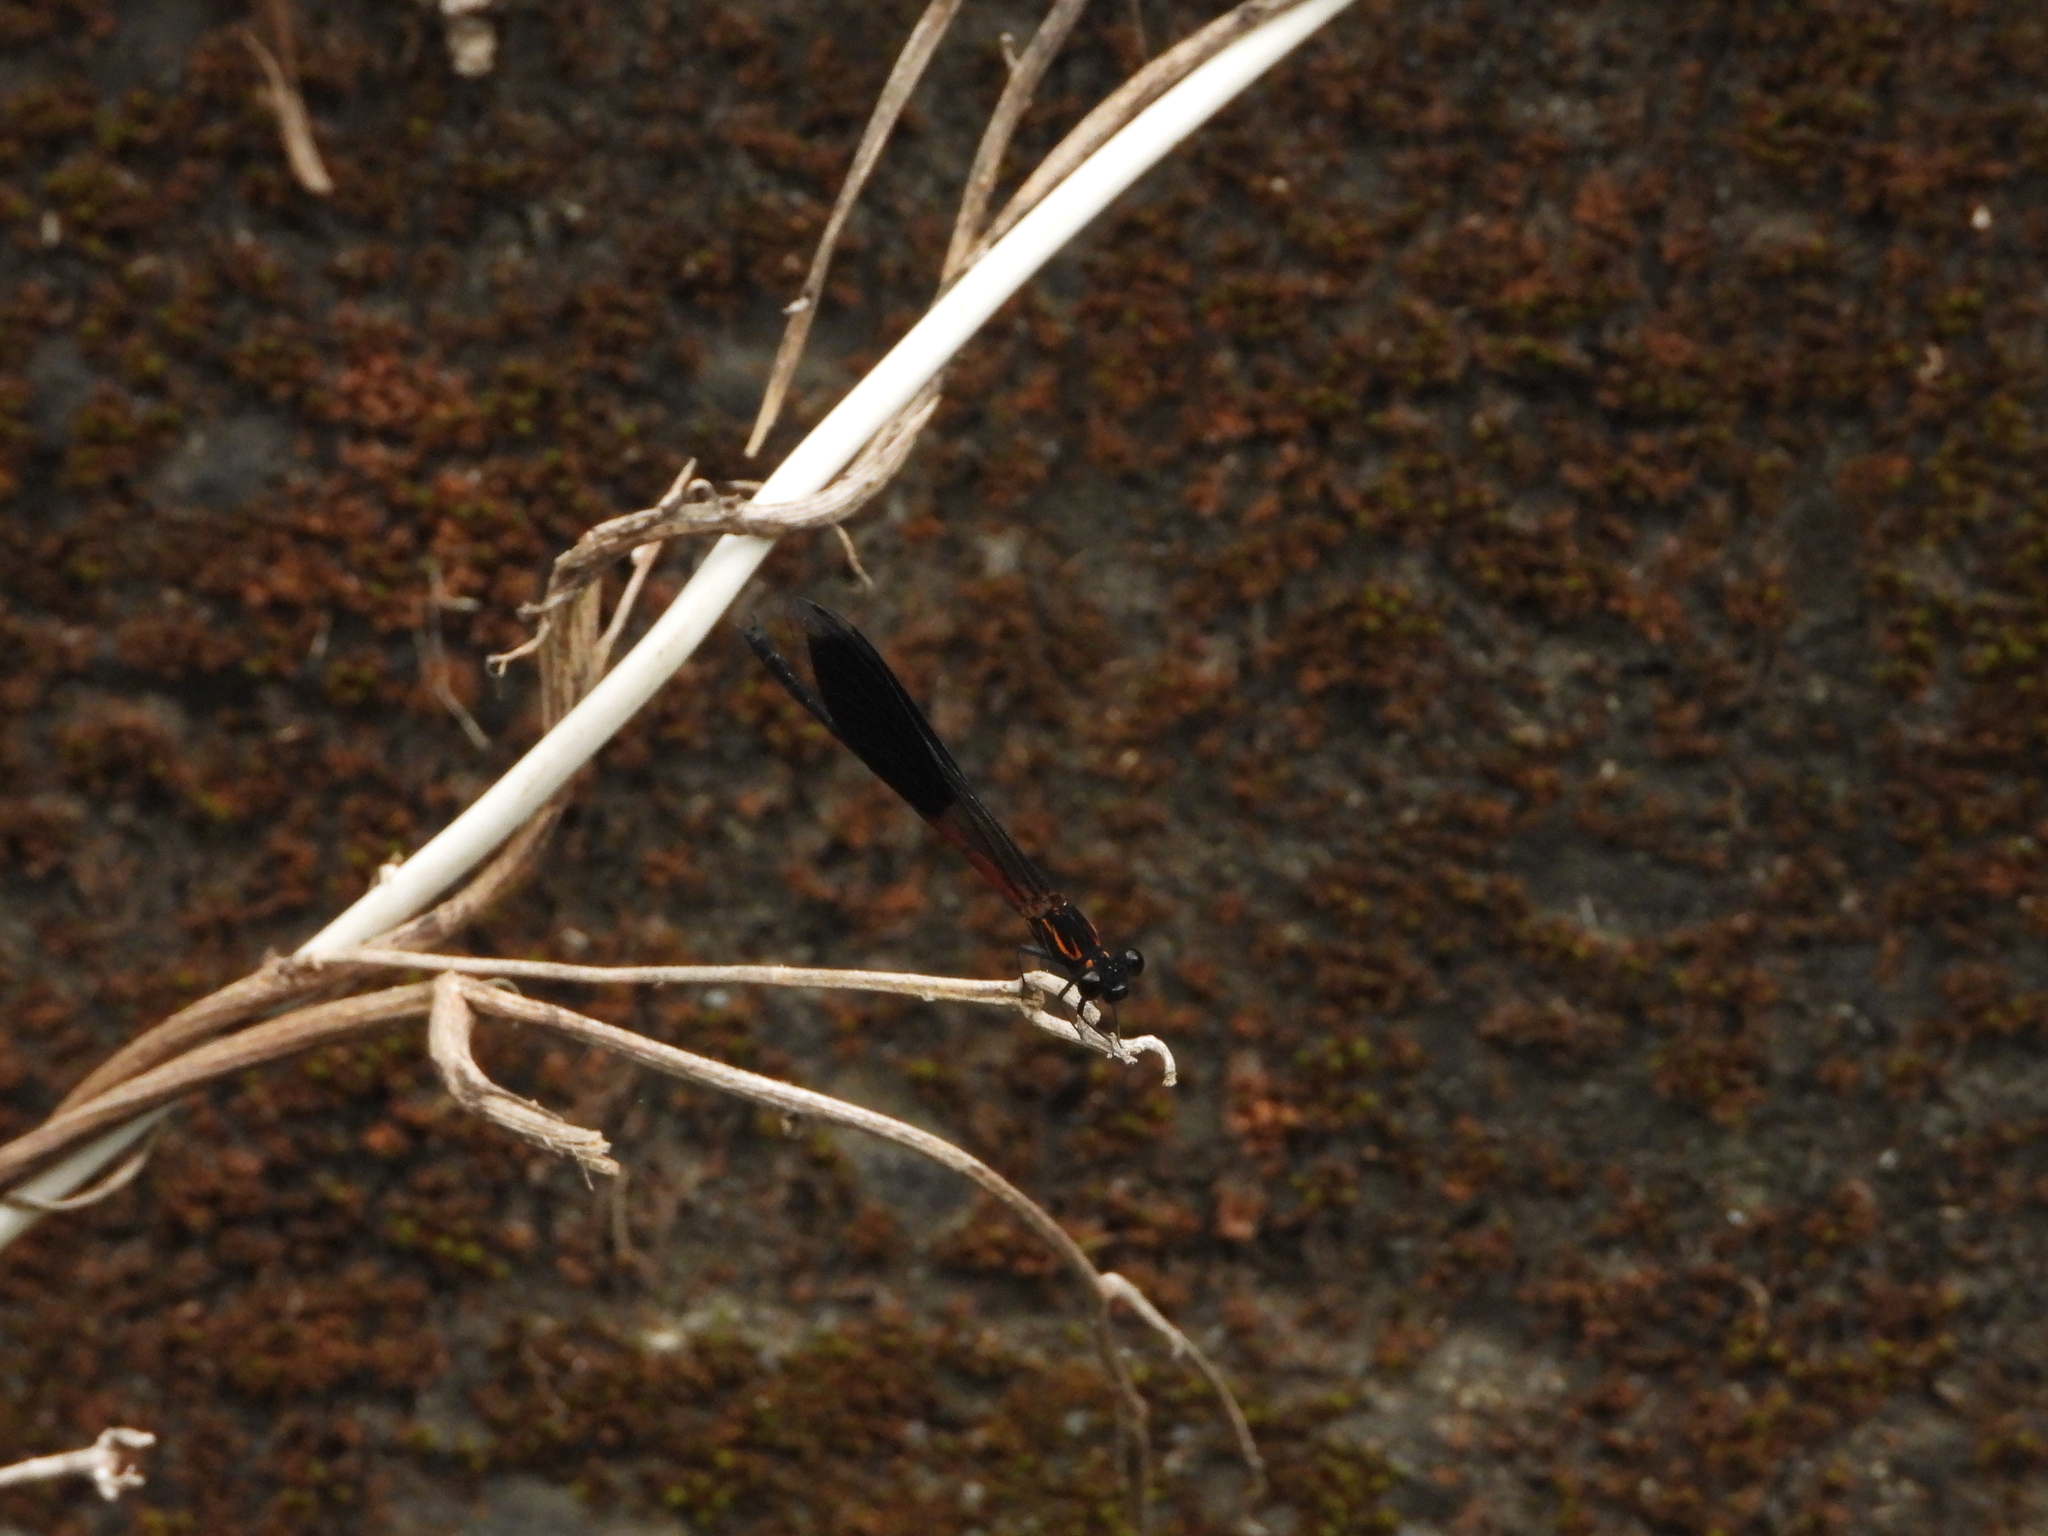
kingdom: Animalia
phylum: Arthropoda
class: Insecta
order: Odonata
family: Euphaeidae
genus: Euphaea
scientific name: Euphaea formosa
